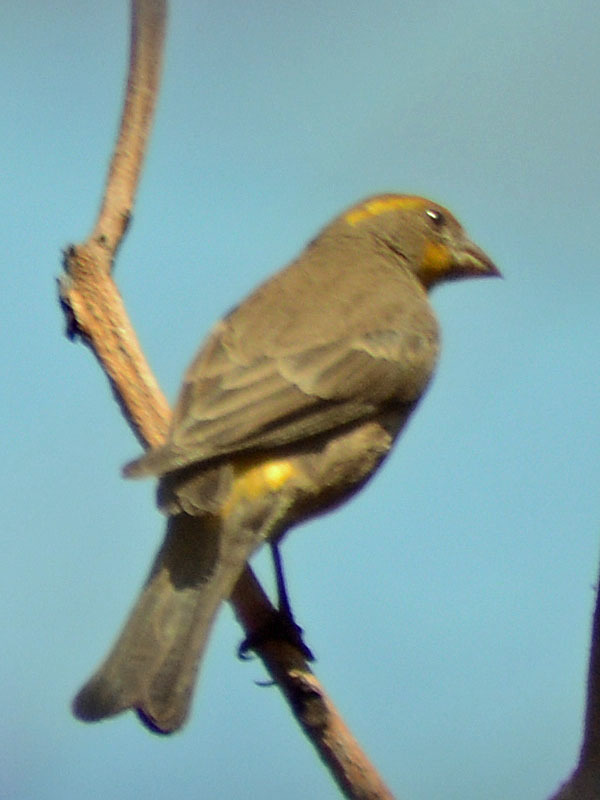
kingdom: Animalia
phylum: Chordata
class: Aves
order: Passeriformes
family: Fringillidae
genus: Haemorhous
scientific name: Haemorhous mexicanus
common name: House finch
